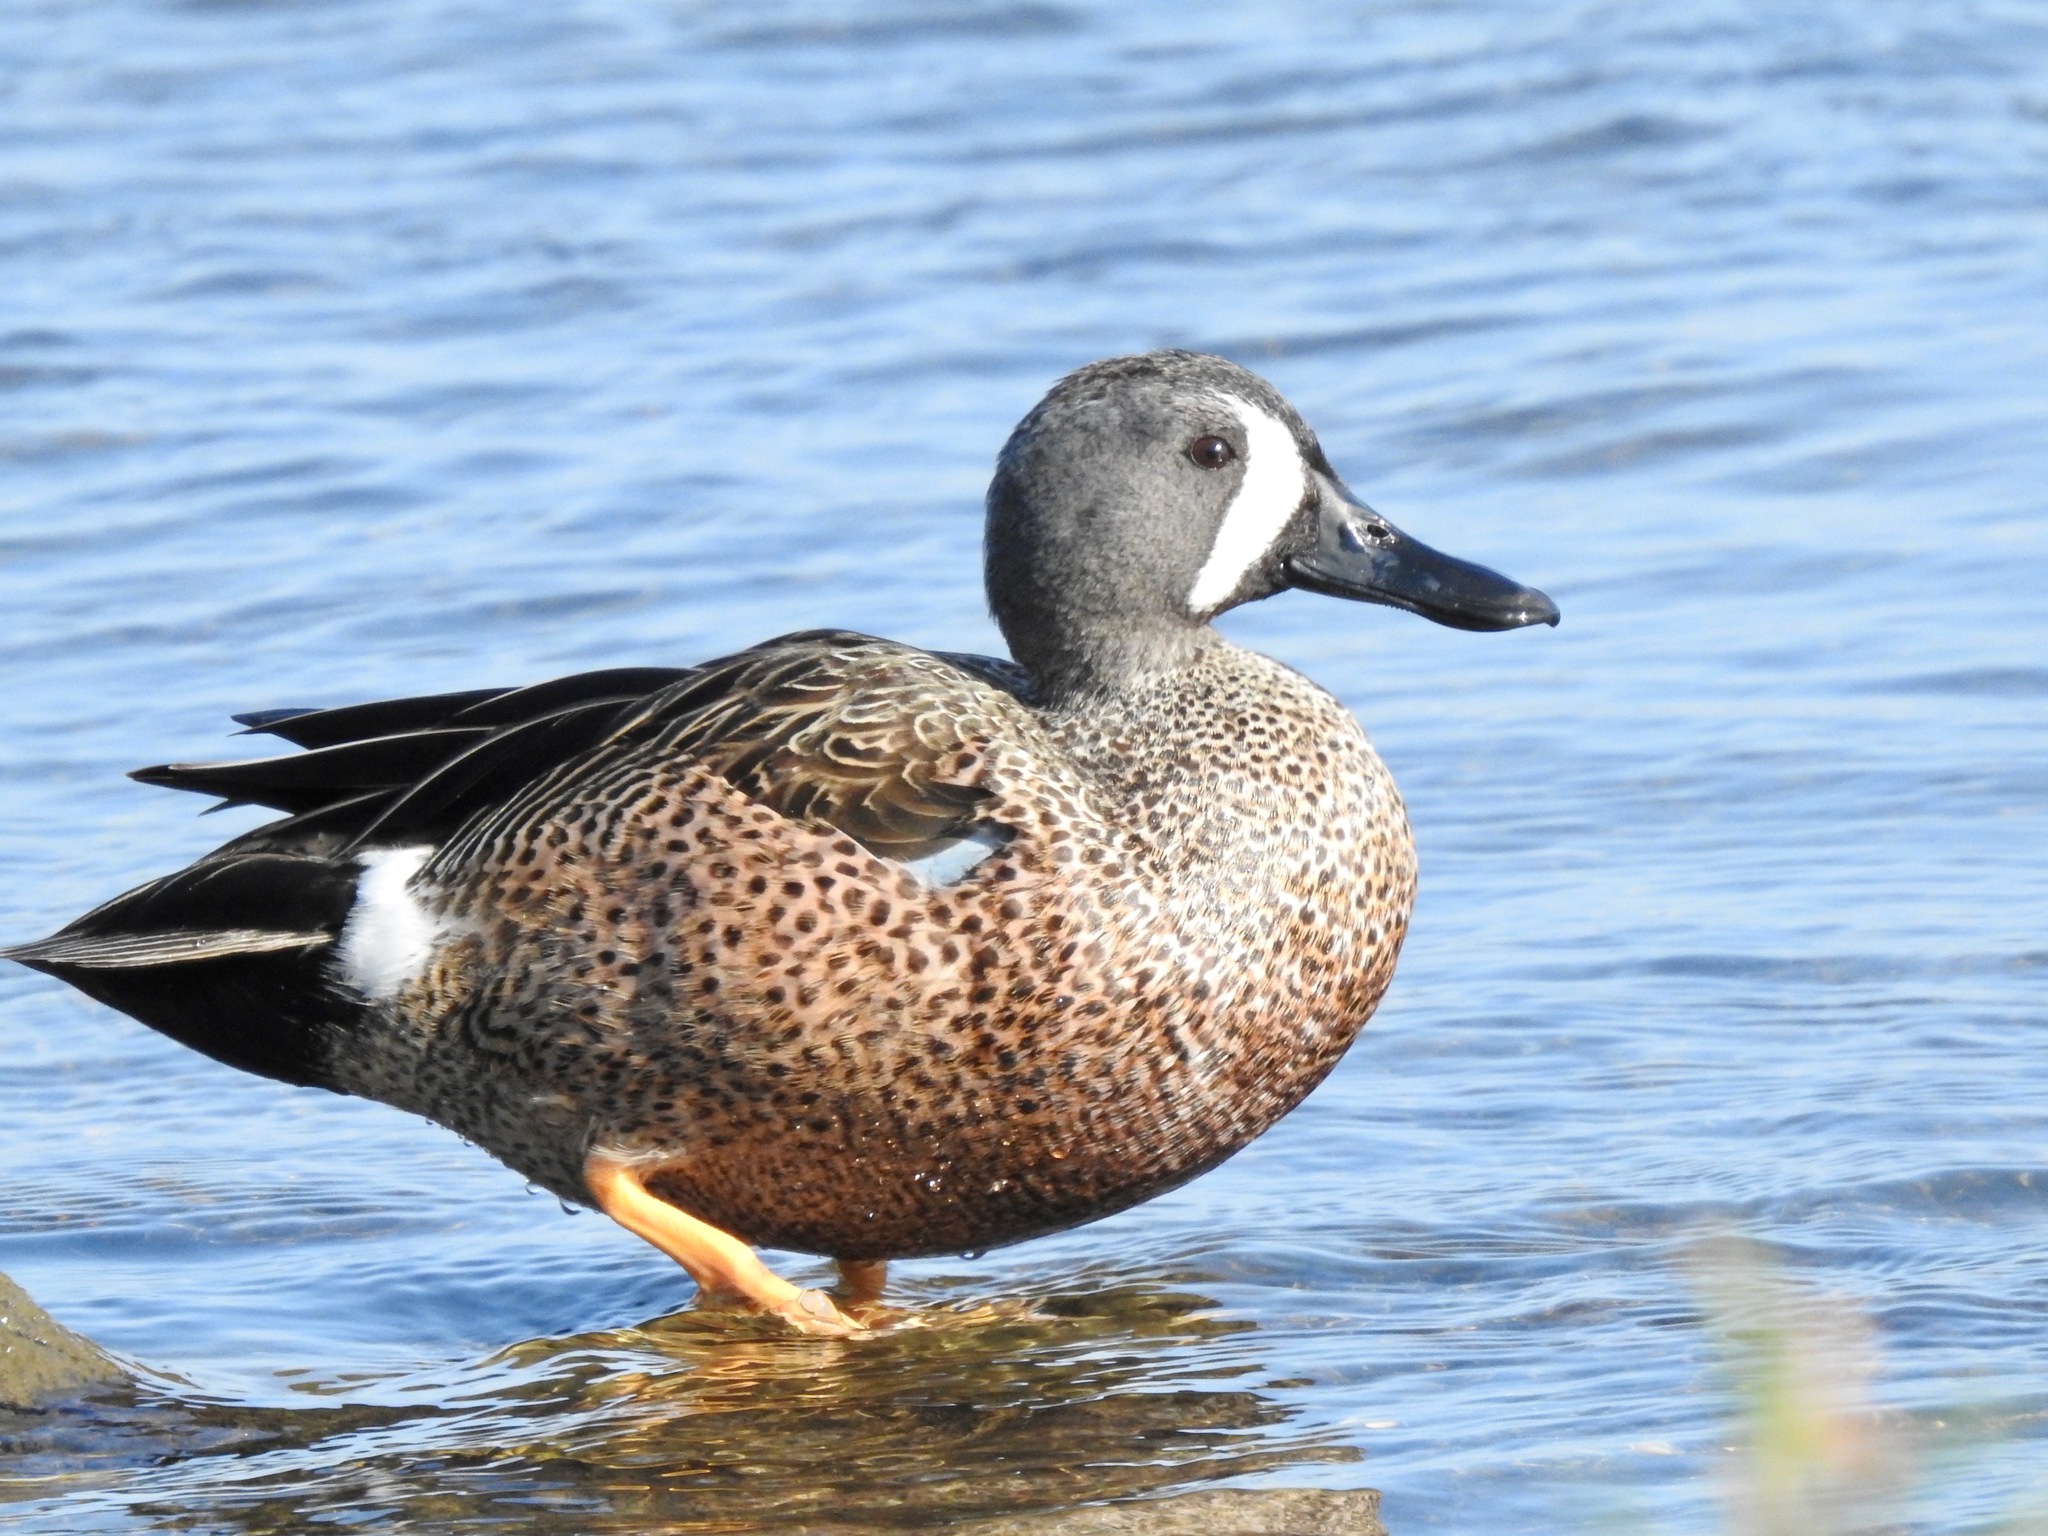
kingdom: Animalia
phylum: Chordata
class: Aves
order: Anseriformes
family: Anatidae
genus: Spatula
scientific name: Spatula discors
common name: Blue-winged teal
